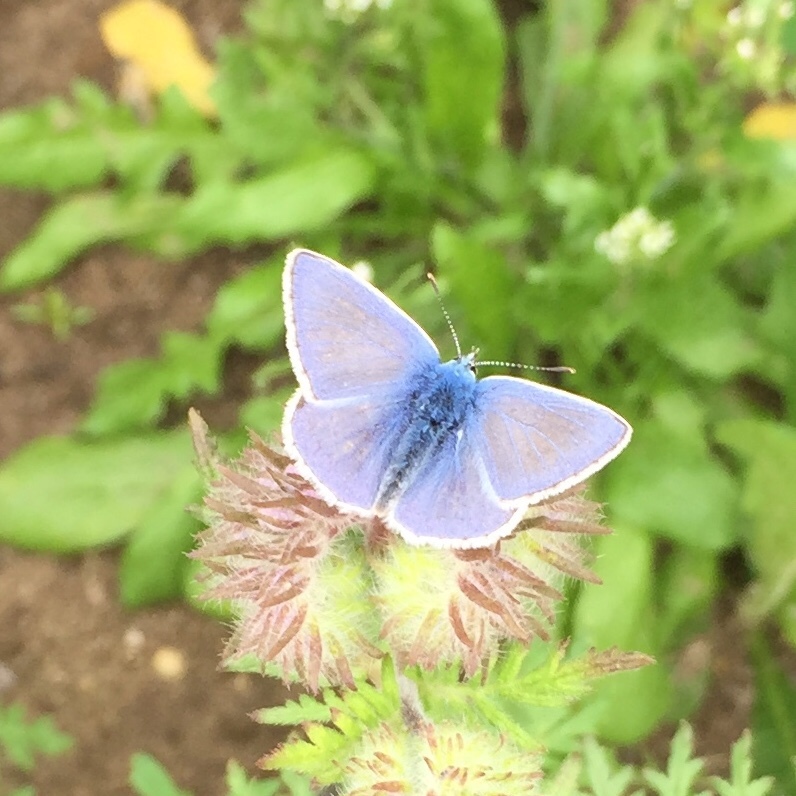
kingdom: Animalia
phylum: Arthropoda
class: Insecta
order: Lepidoptera
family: Lycaenidae
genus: Polyommatus
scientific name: Polyommatus icarus
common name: Common blue
